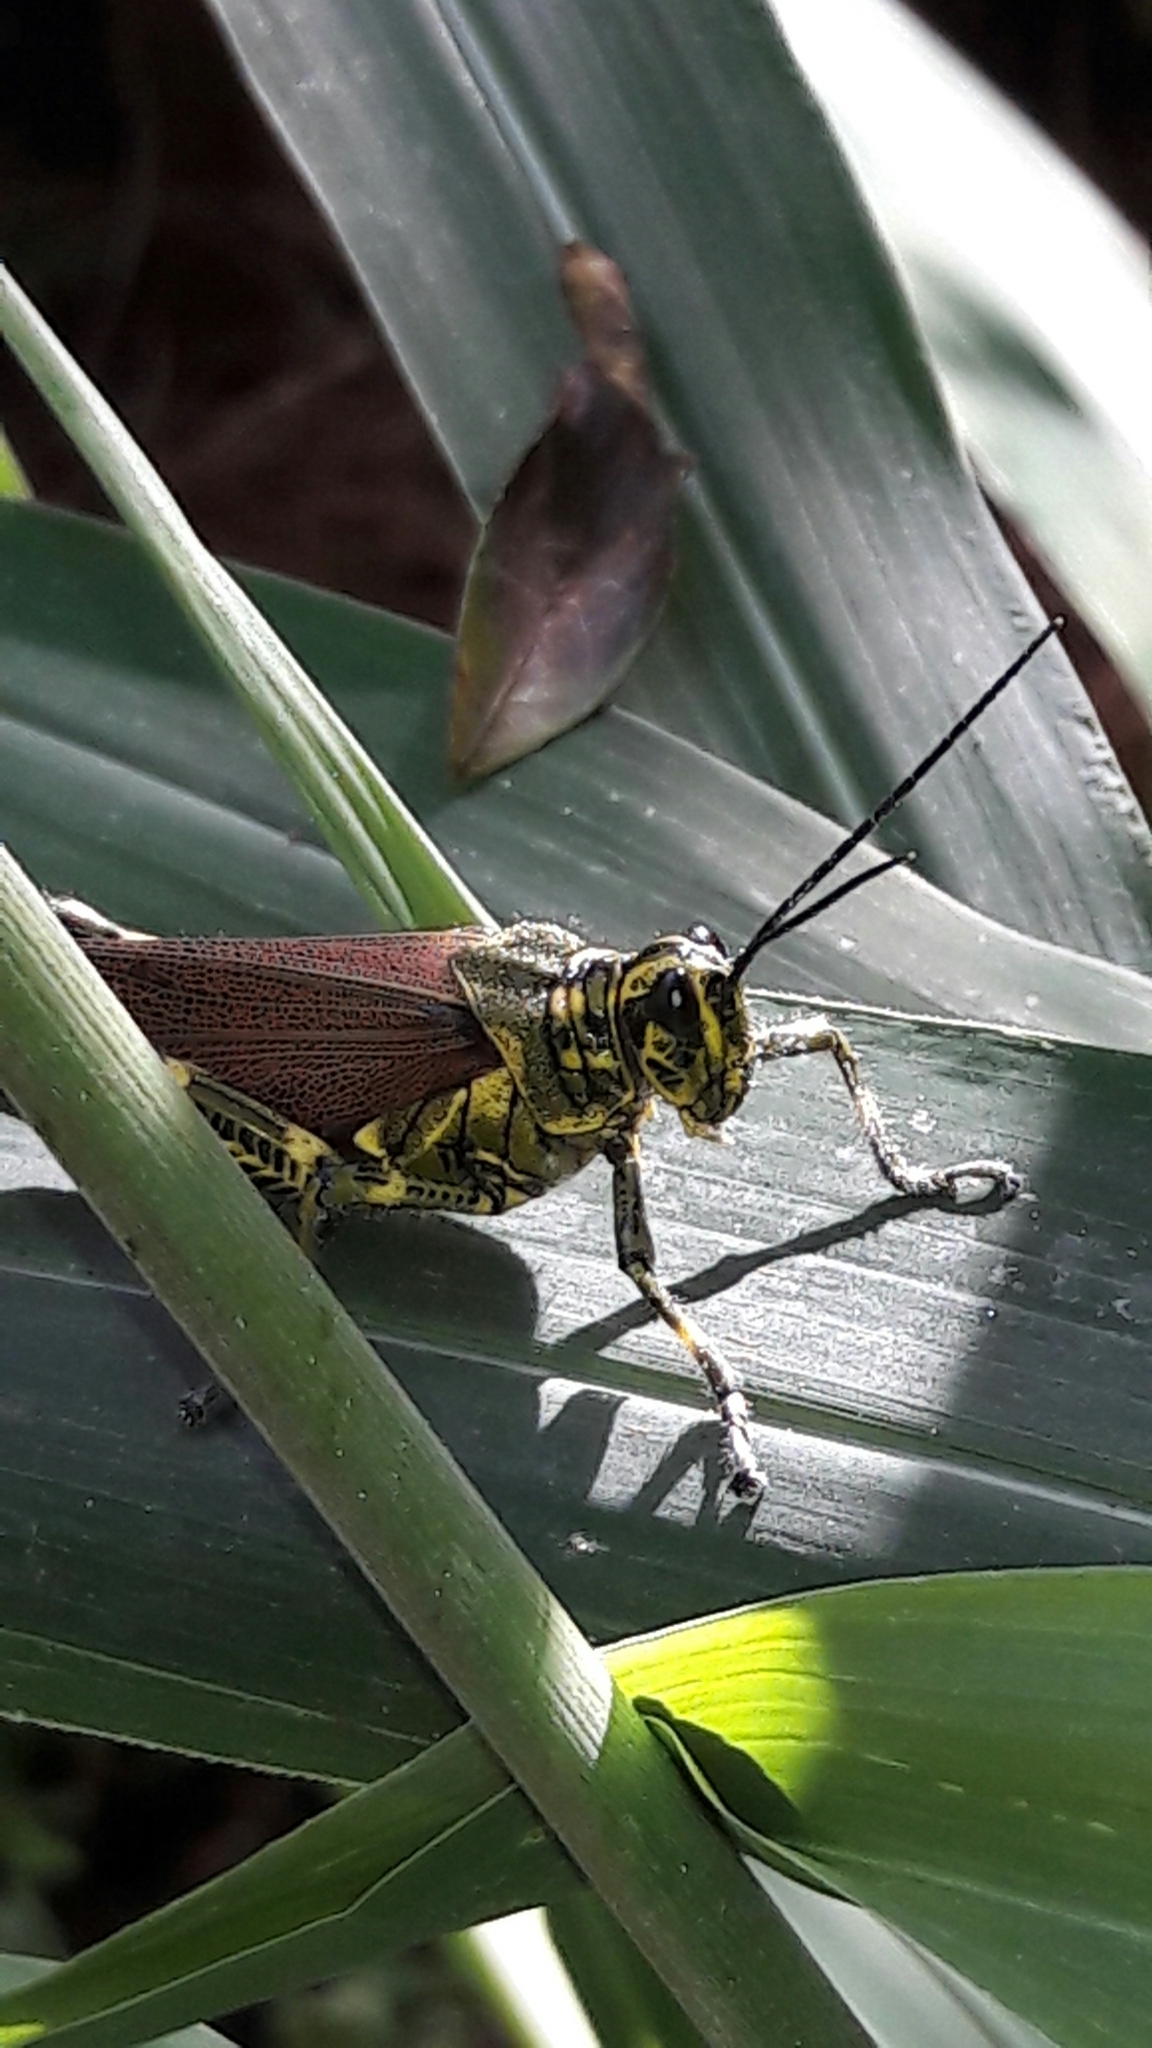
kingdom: Animalia
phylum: Arthropoda
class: Insecta
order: Orthoptera
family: Romaleidae
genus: Chromacris
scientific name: Chromacris speciosa
